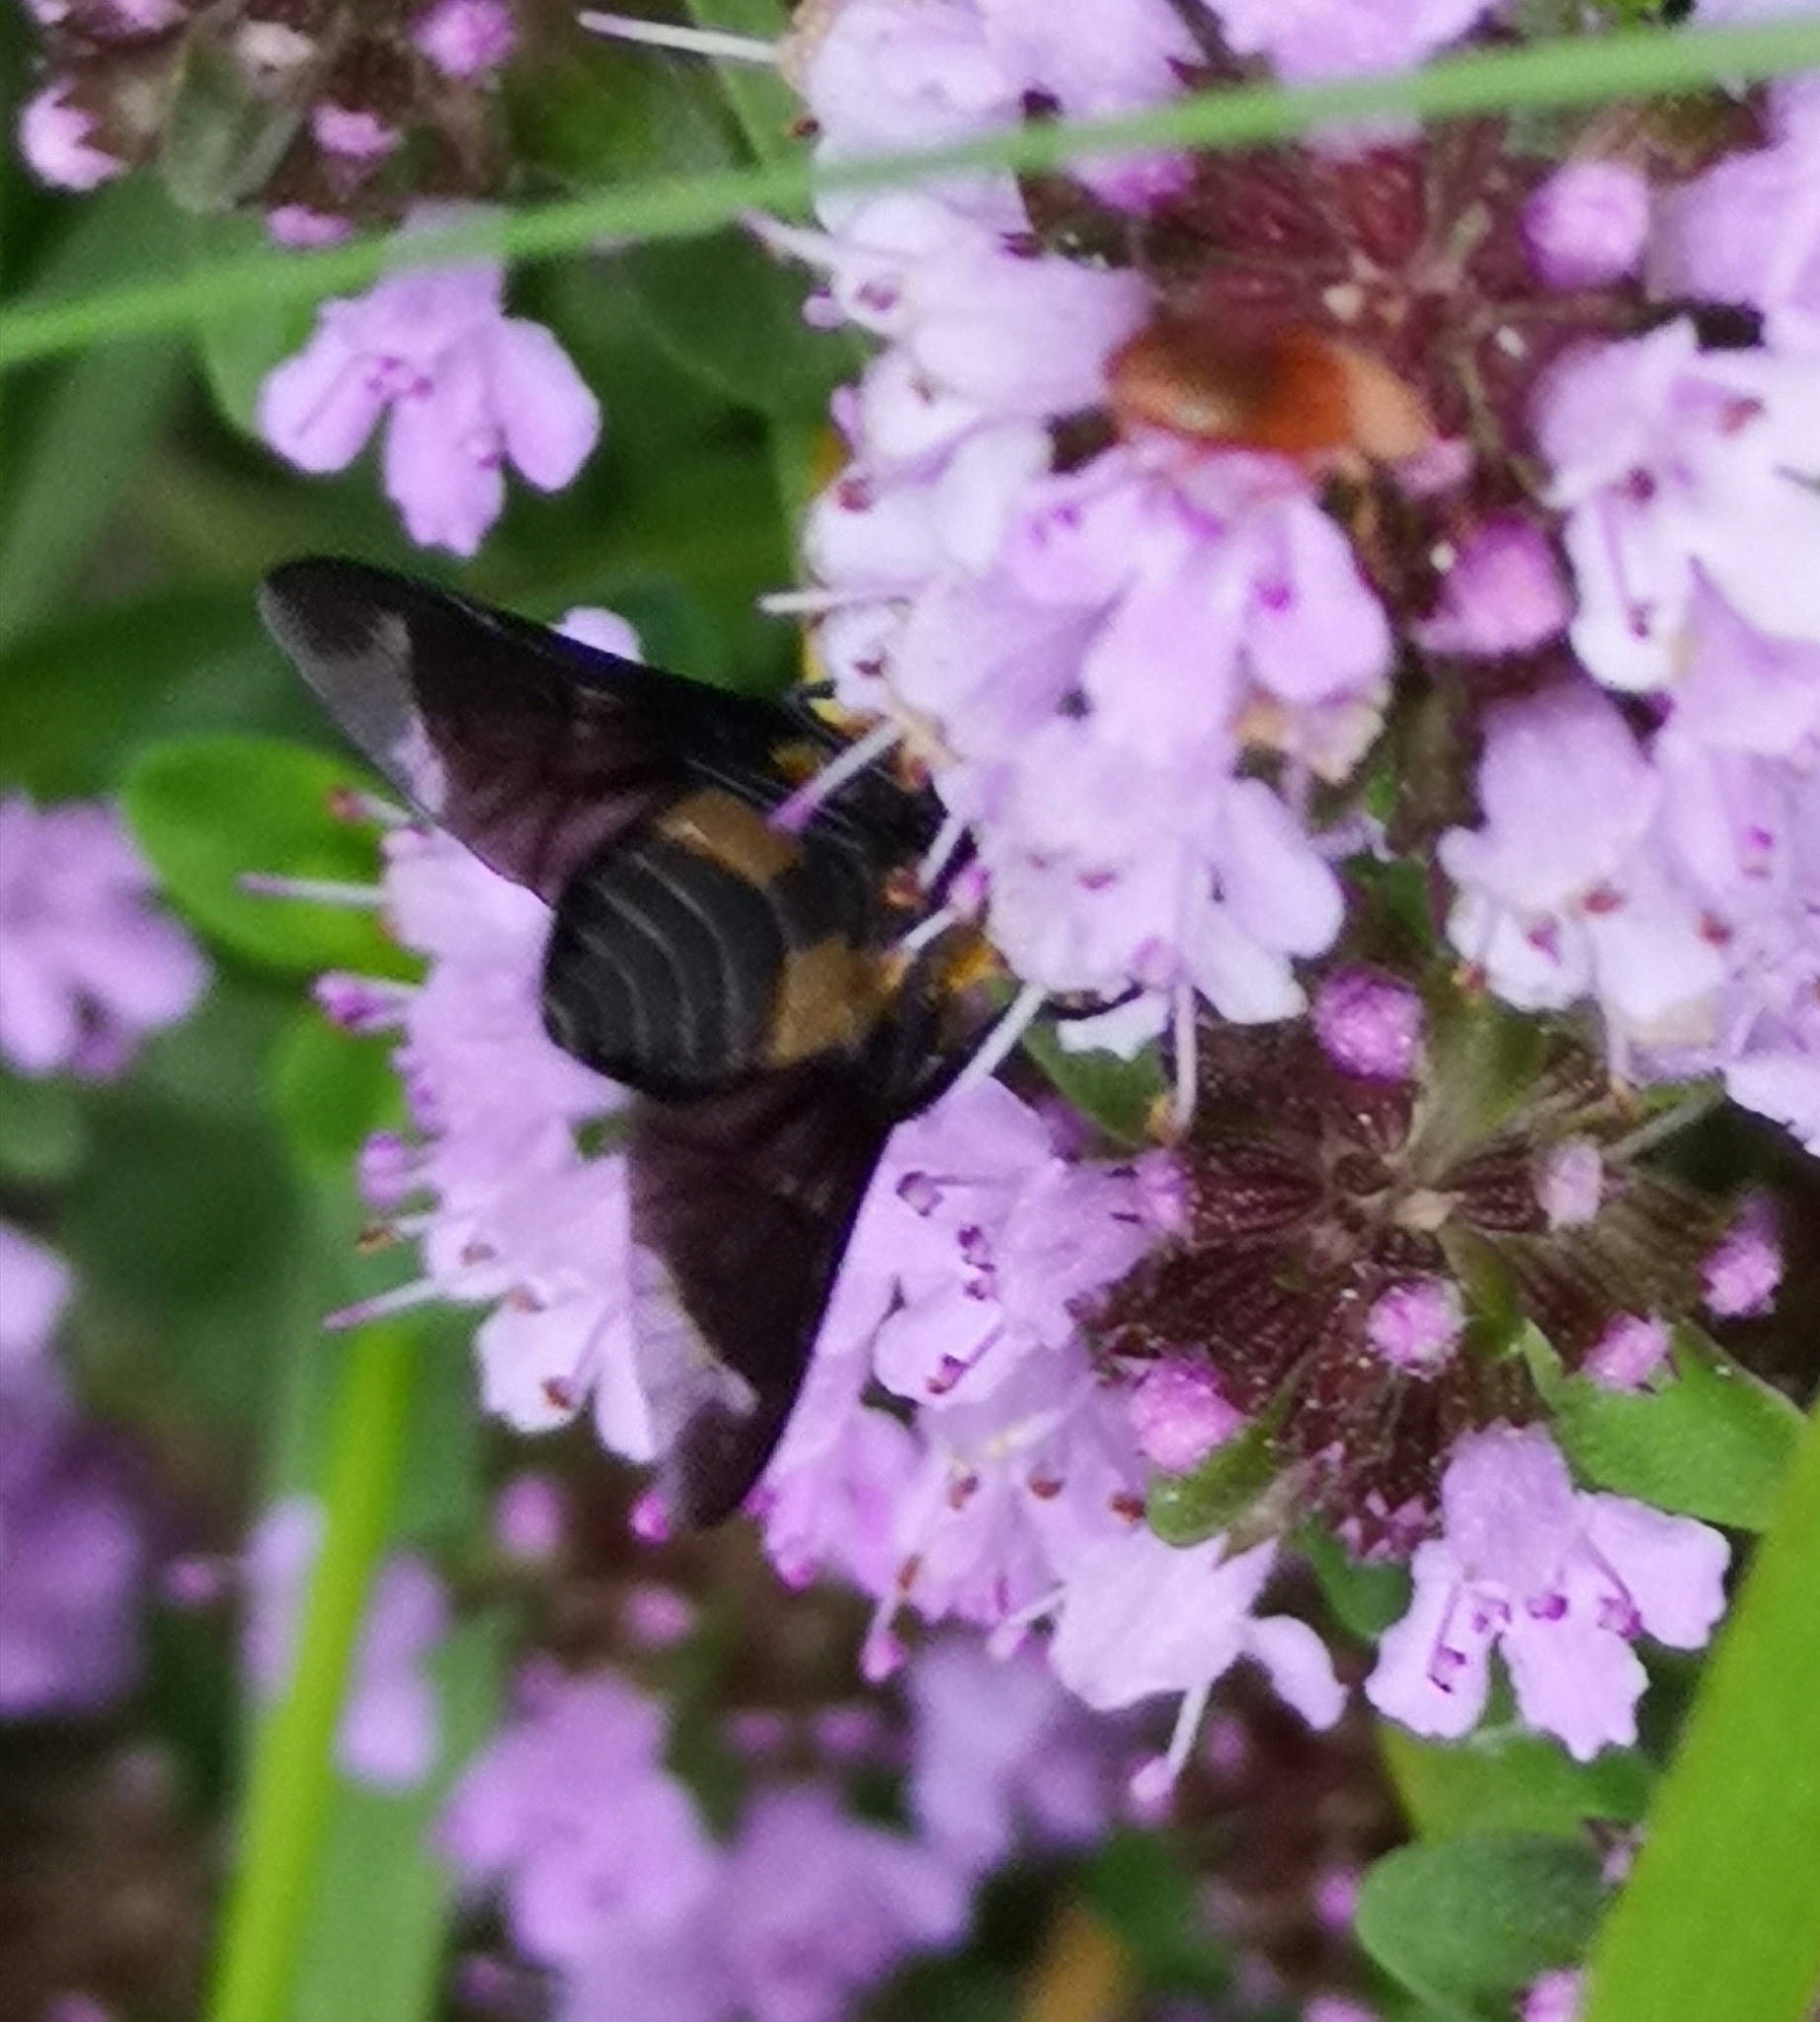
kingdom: Animalia
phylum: Arthropoda
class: Insecta
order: Diptera
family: Tabanidae
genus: Chrysops
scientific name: Chrysops caecutiens
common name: Splayed deerfly
